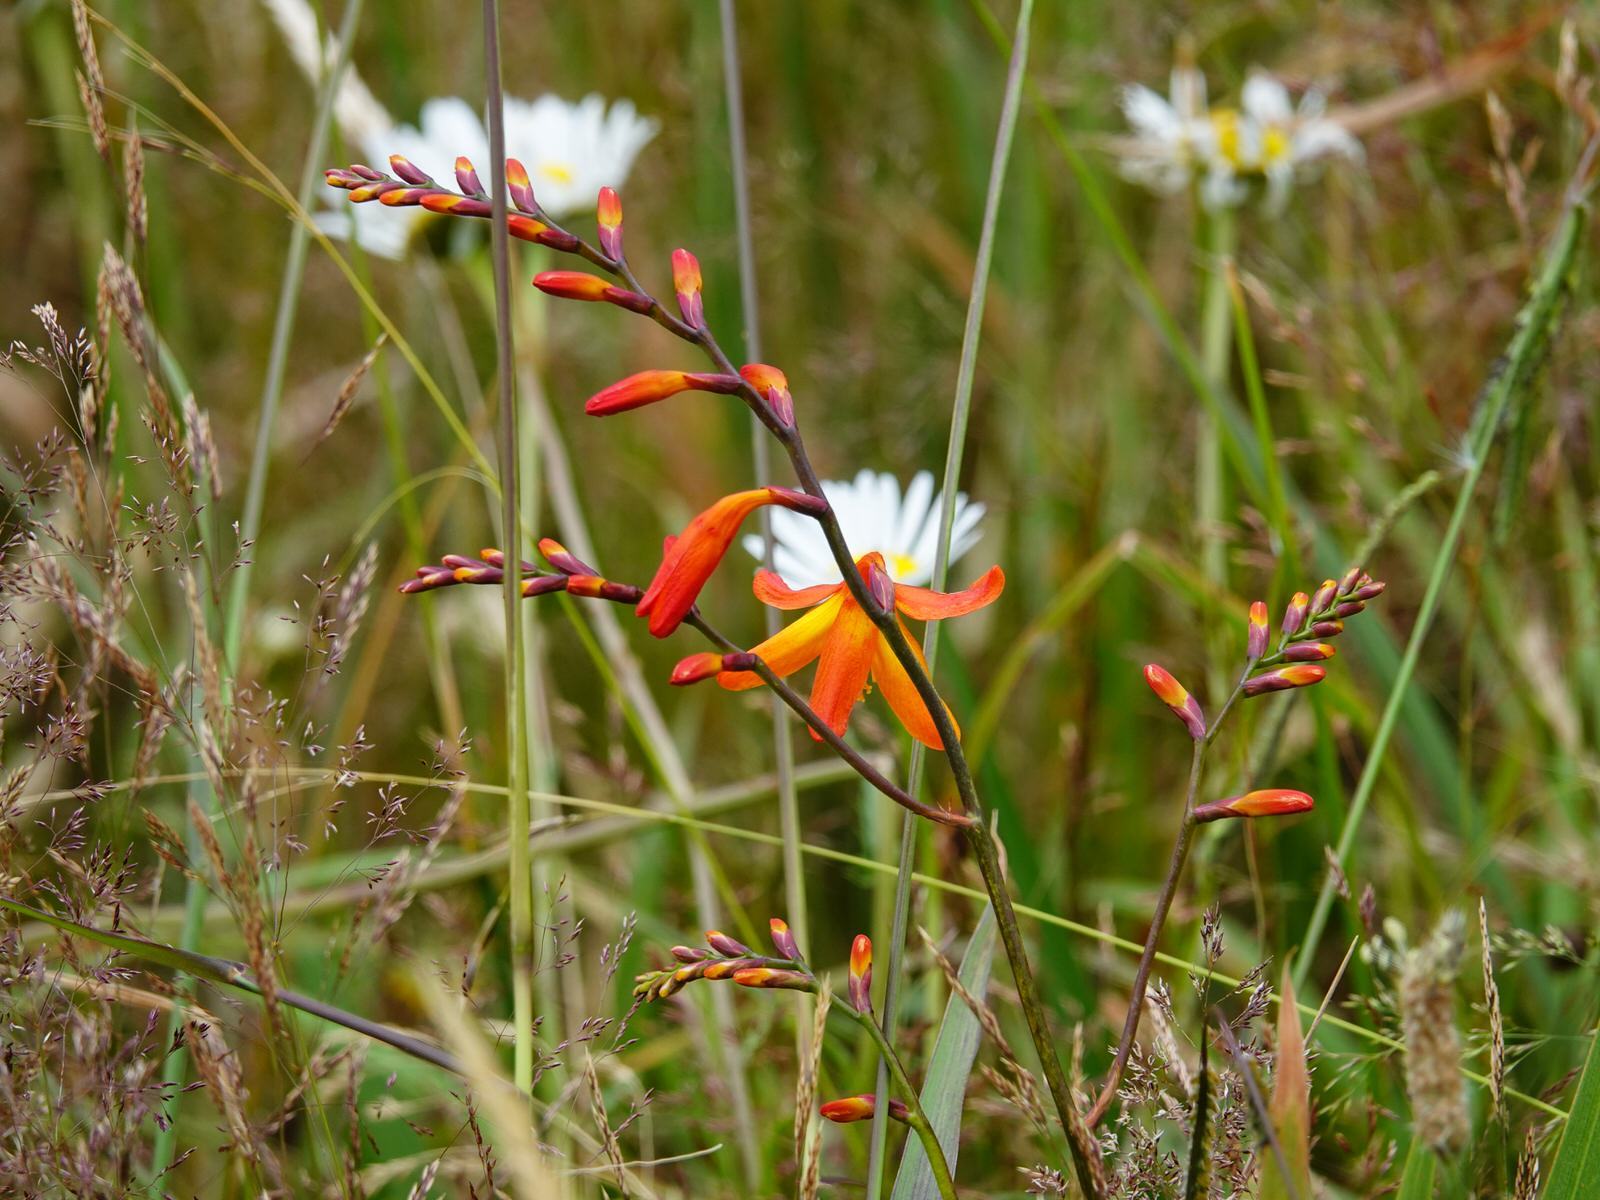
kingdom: Plantae
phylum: Tracheophyta
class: Liliopsida
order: Asparagales
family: Iridaceae
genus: Crocosmia
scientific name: Crocosmia crocosmiiflora
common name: Montbretia
